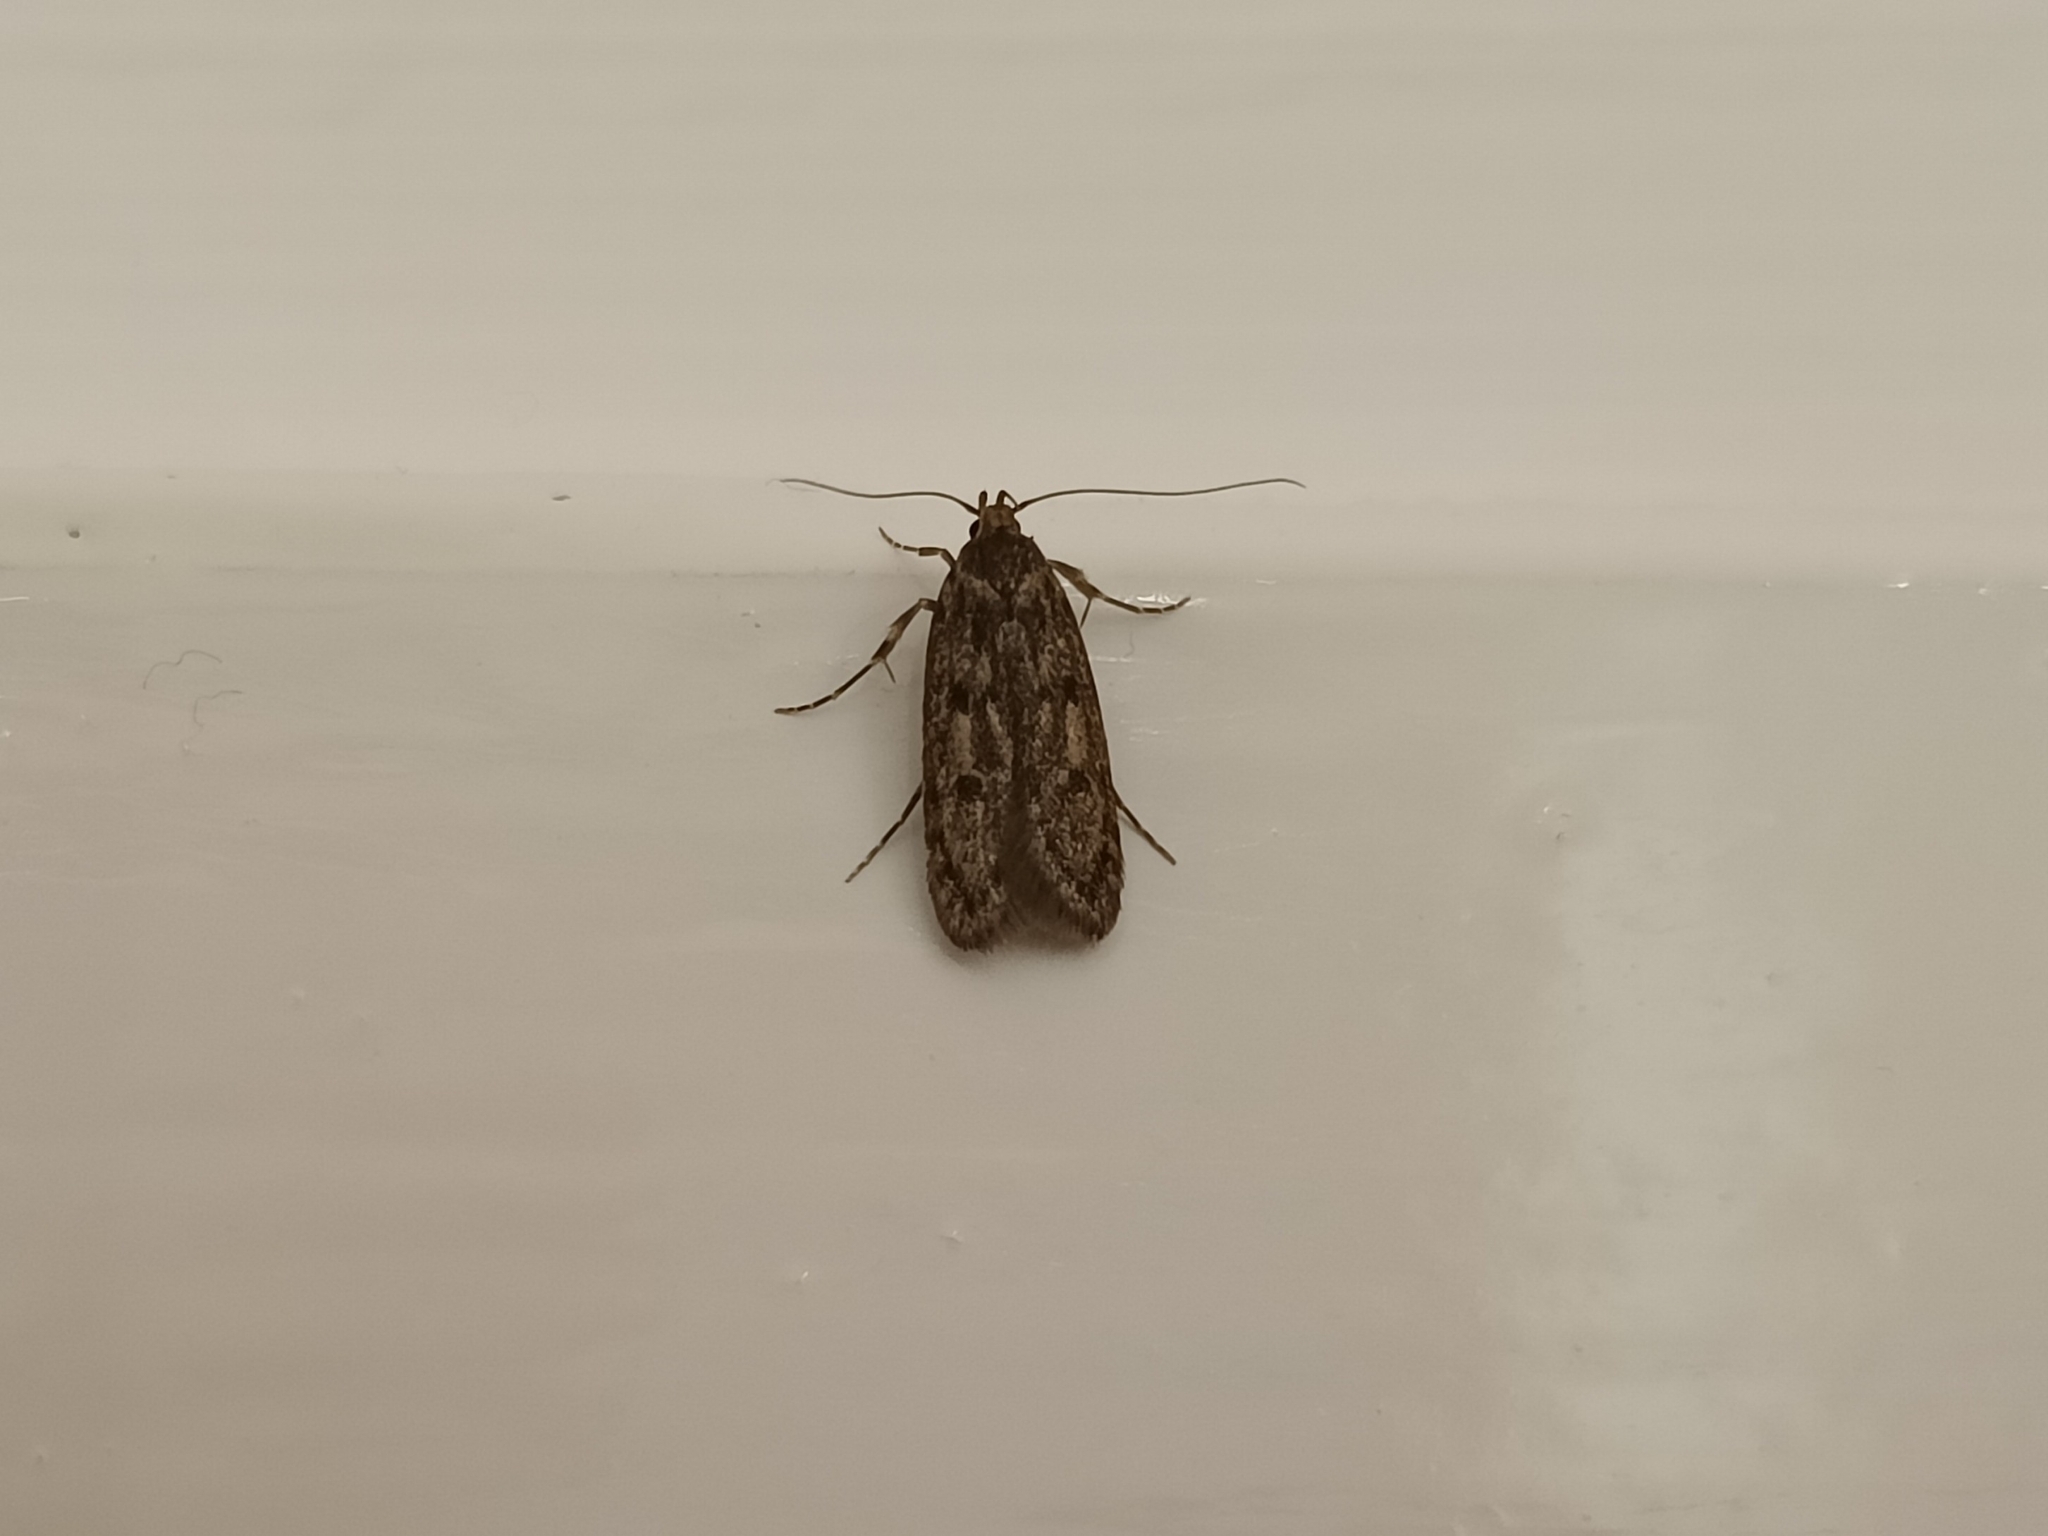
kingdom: Animalia
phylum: Arthropoda
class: Insecta
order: Lepidoptera
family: Oecophoridae
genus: Hofmannophila
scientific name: Hofmannophila pseudospretella
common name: Brown house moth
